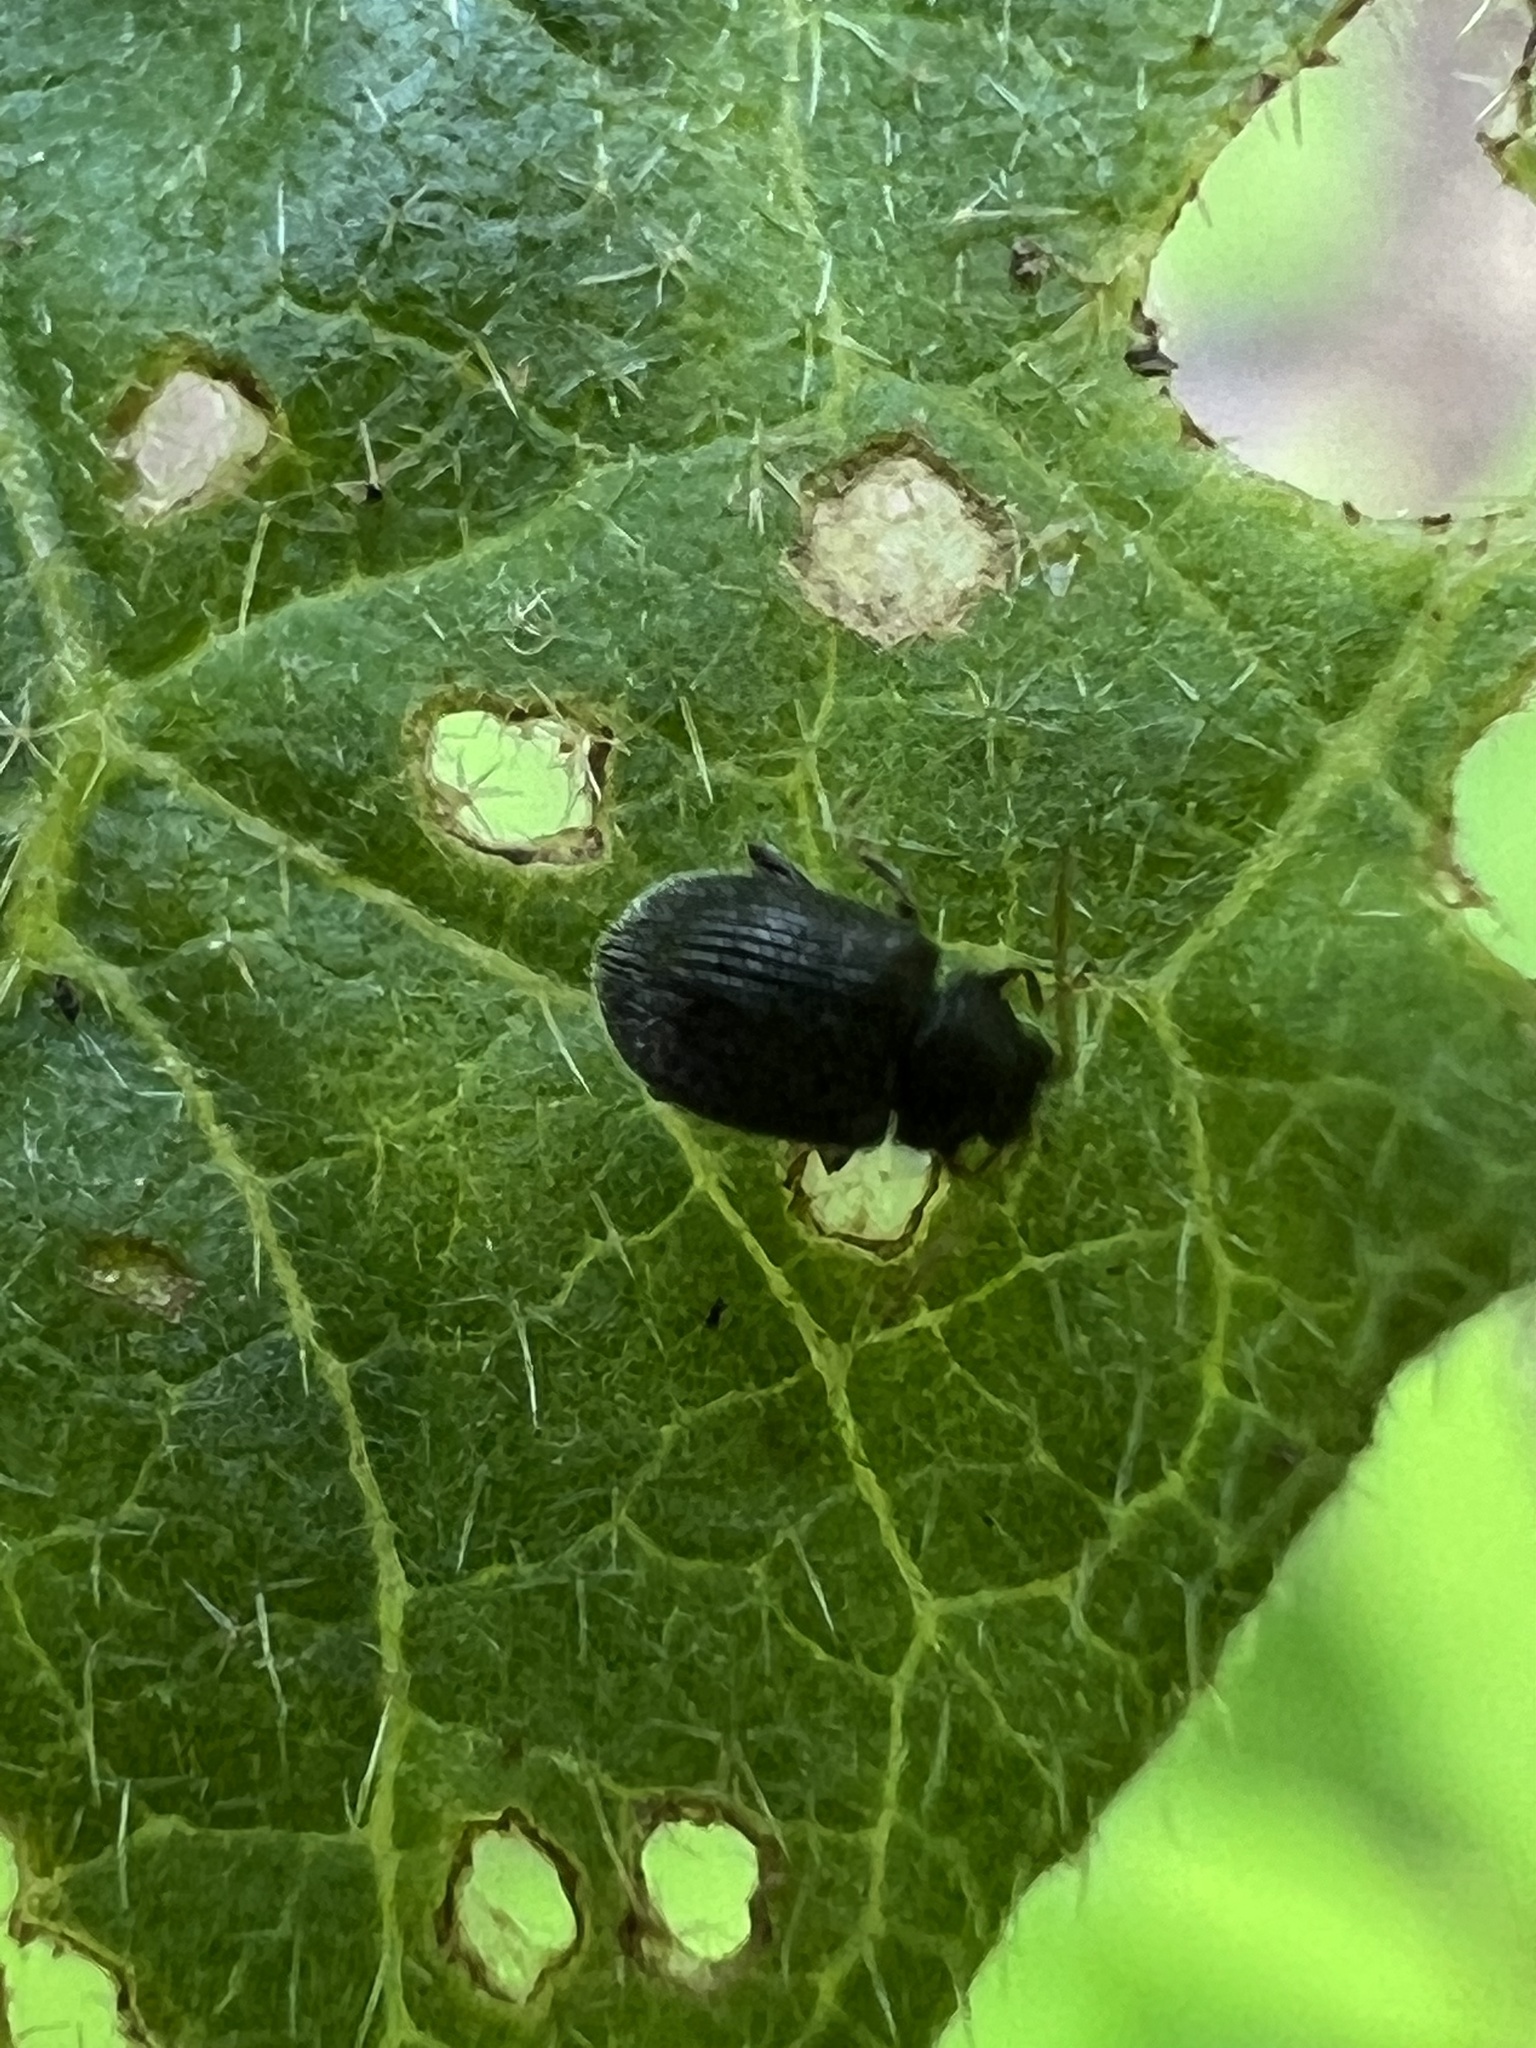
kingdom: Animalia
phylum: Arthropoda
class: Insecta
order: Coleoptera
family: Chrysomelidae
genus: Epitrix
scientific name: Epitrix fuscula
